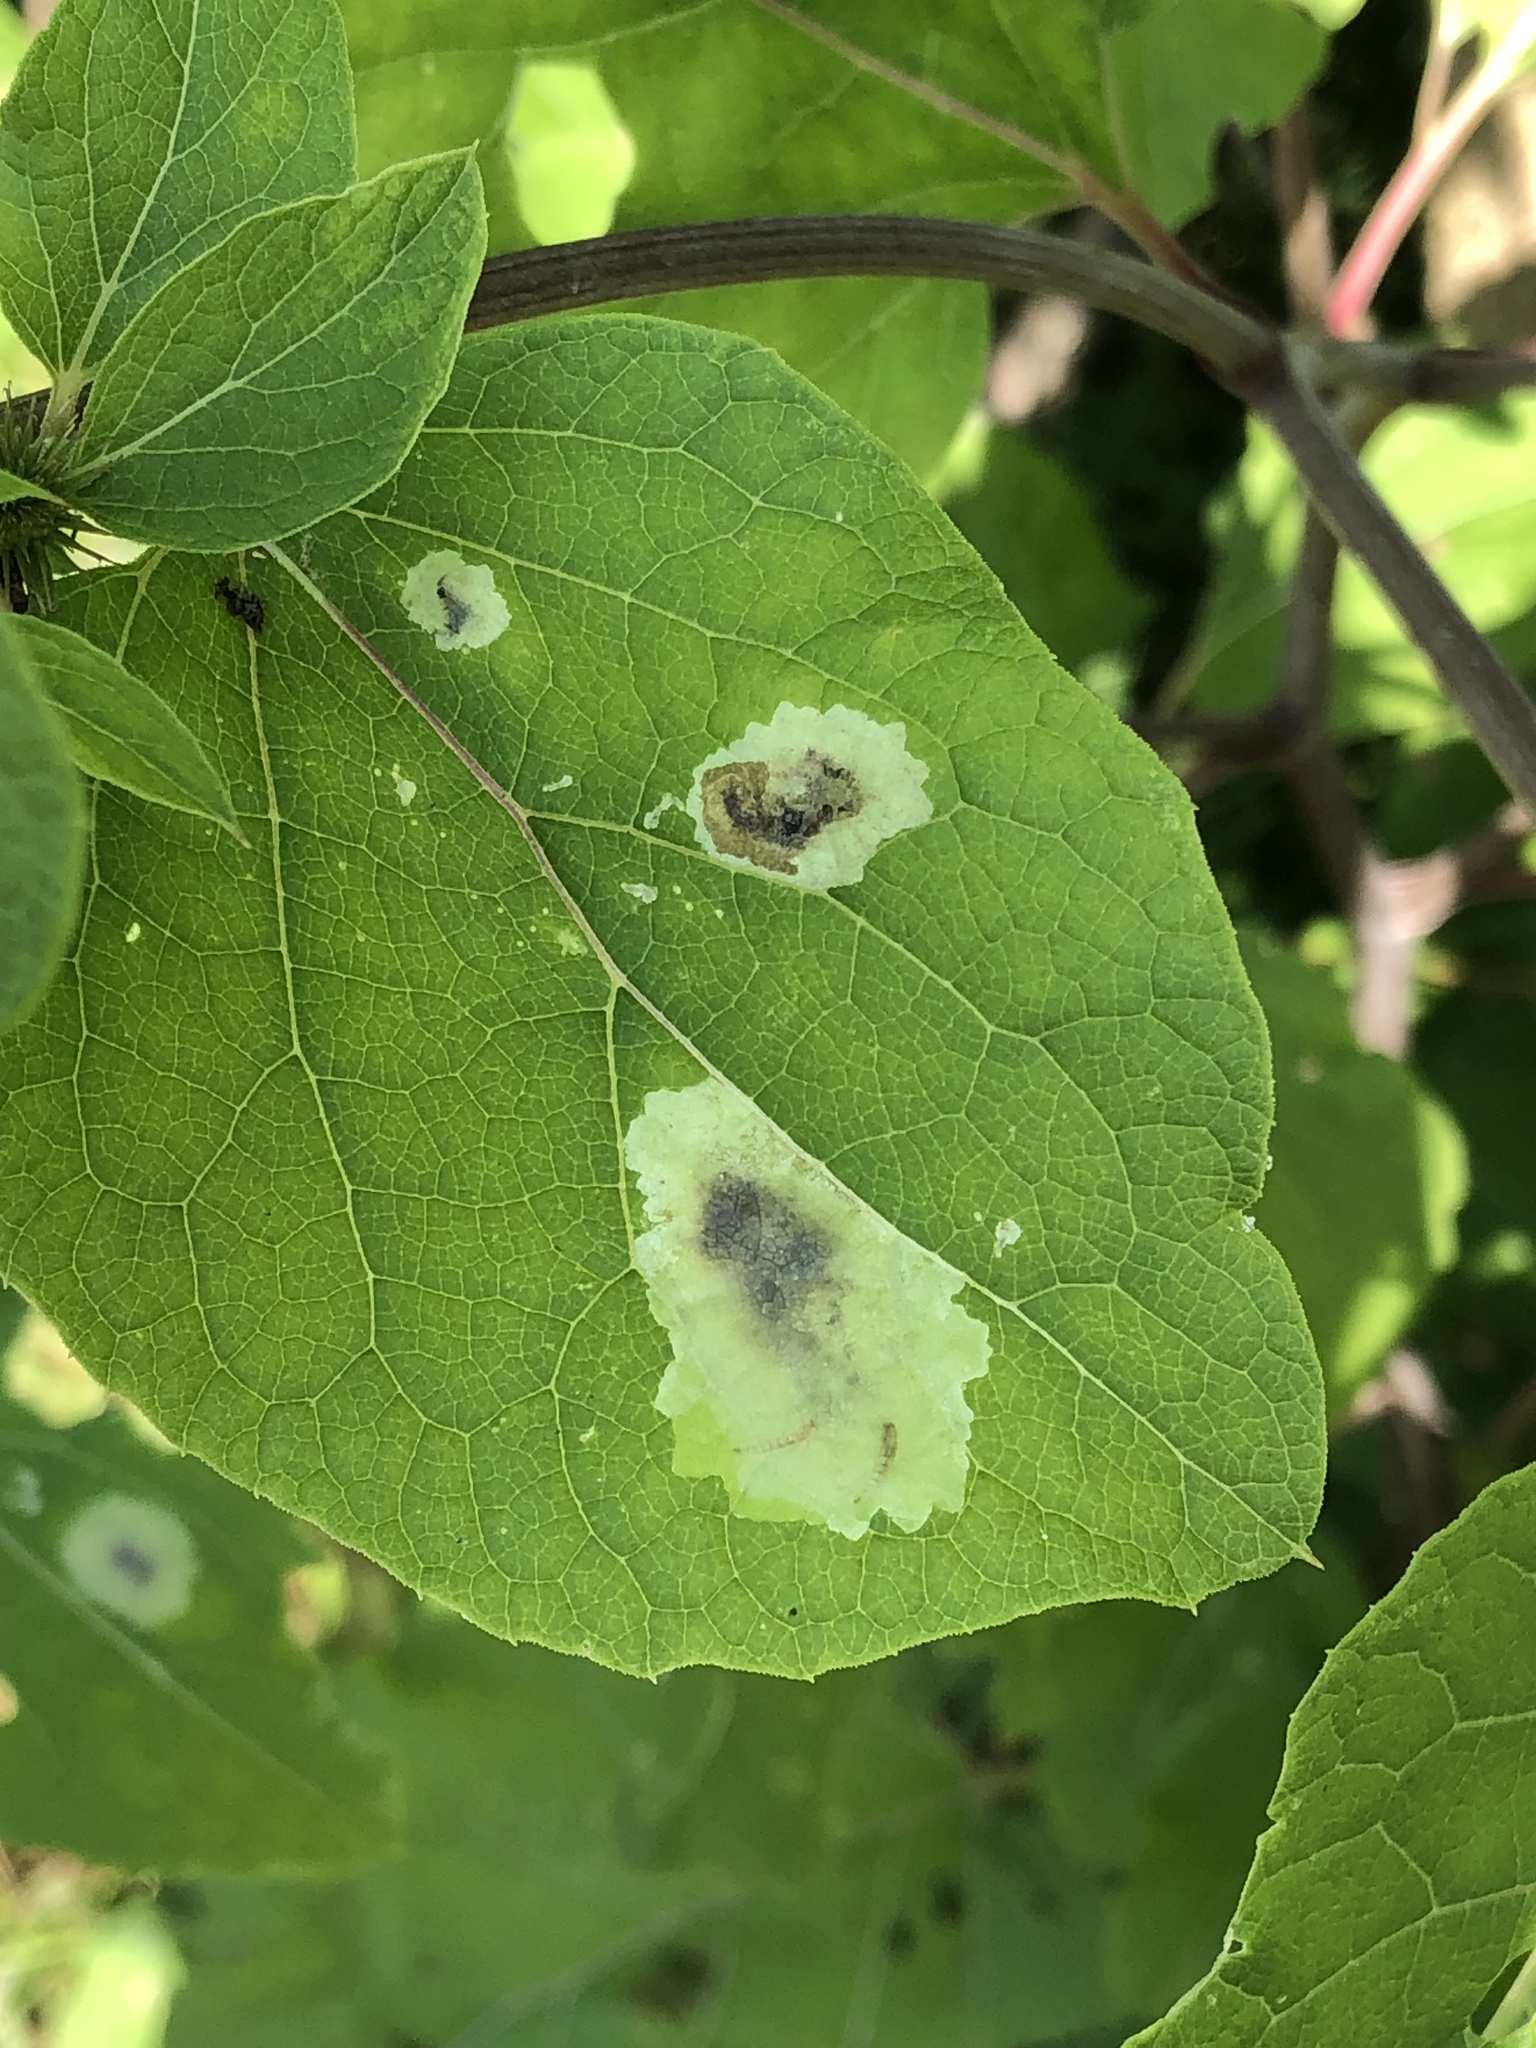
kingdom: Animalia
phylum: Arthropoda
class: Insecta
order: Diptera
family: Agromyzidae
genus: Calycomyza
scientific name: Calycomyza flavinotum
